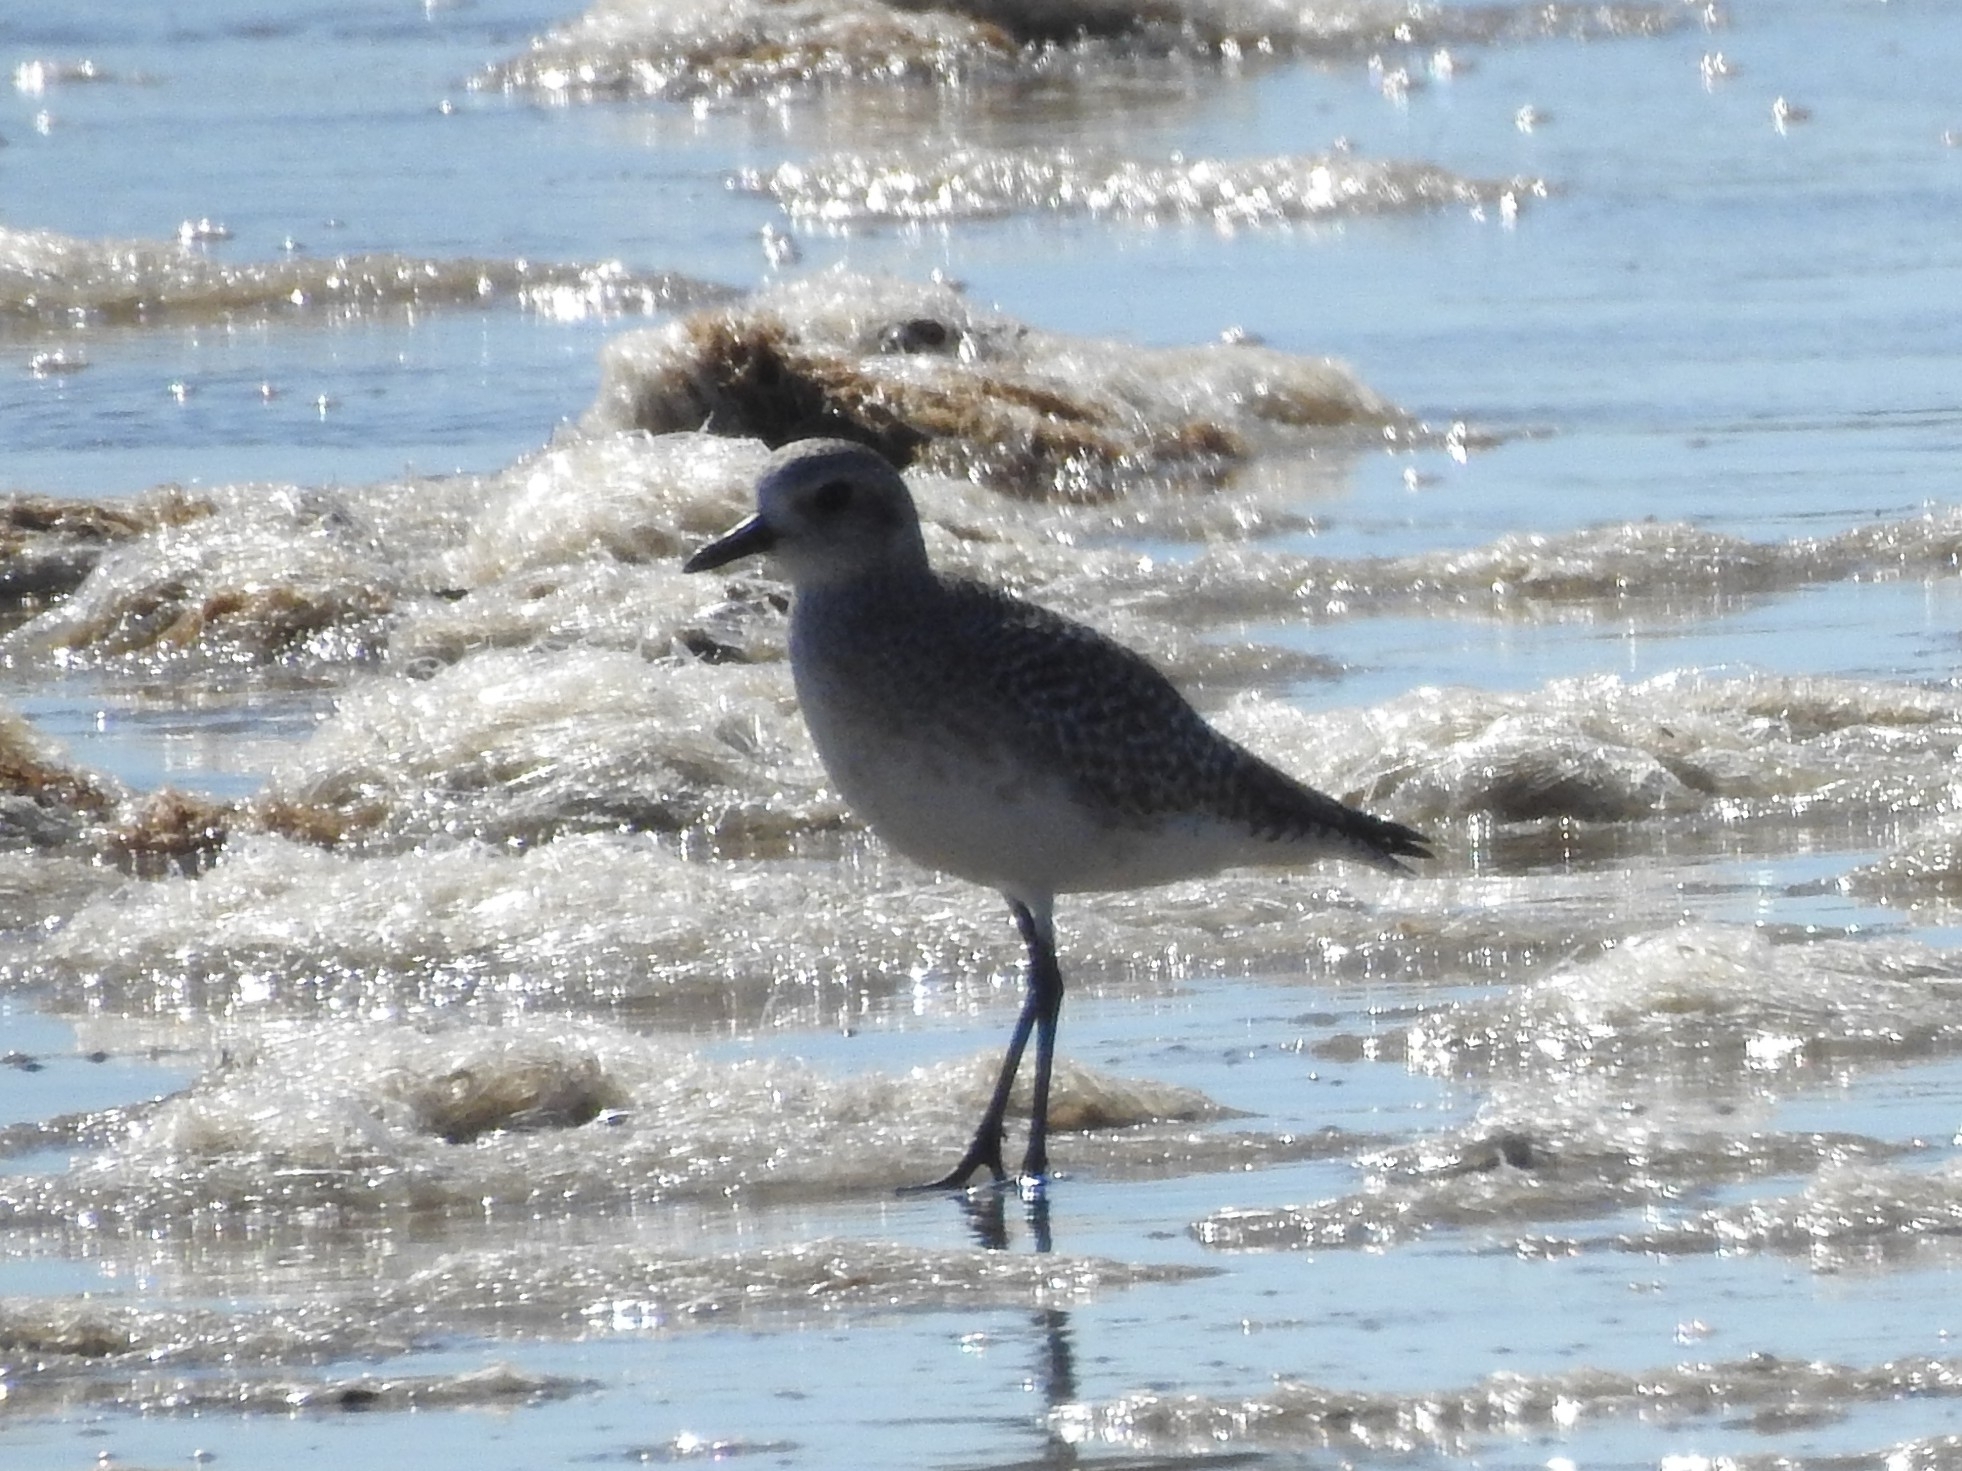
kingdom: Animalia
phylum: Chordata
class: Aves
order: Charadriiformes
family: Charadriidae
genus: Pluvialis
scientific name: Pluvialis squatarola
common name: Grey plover
